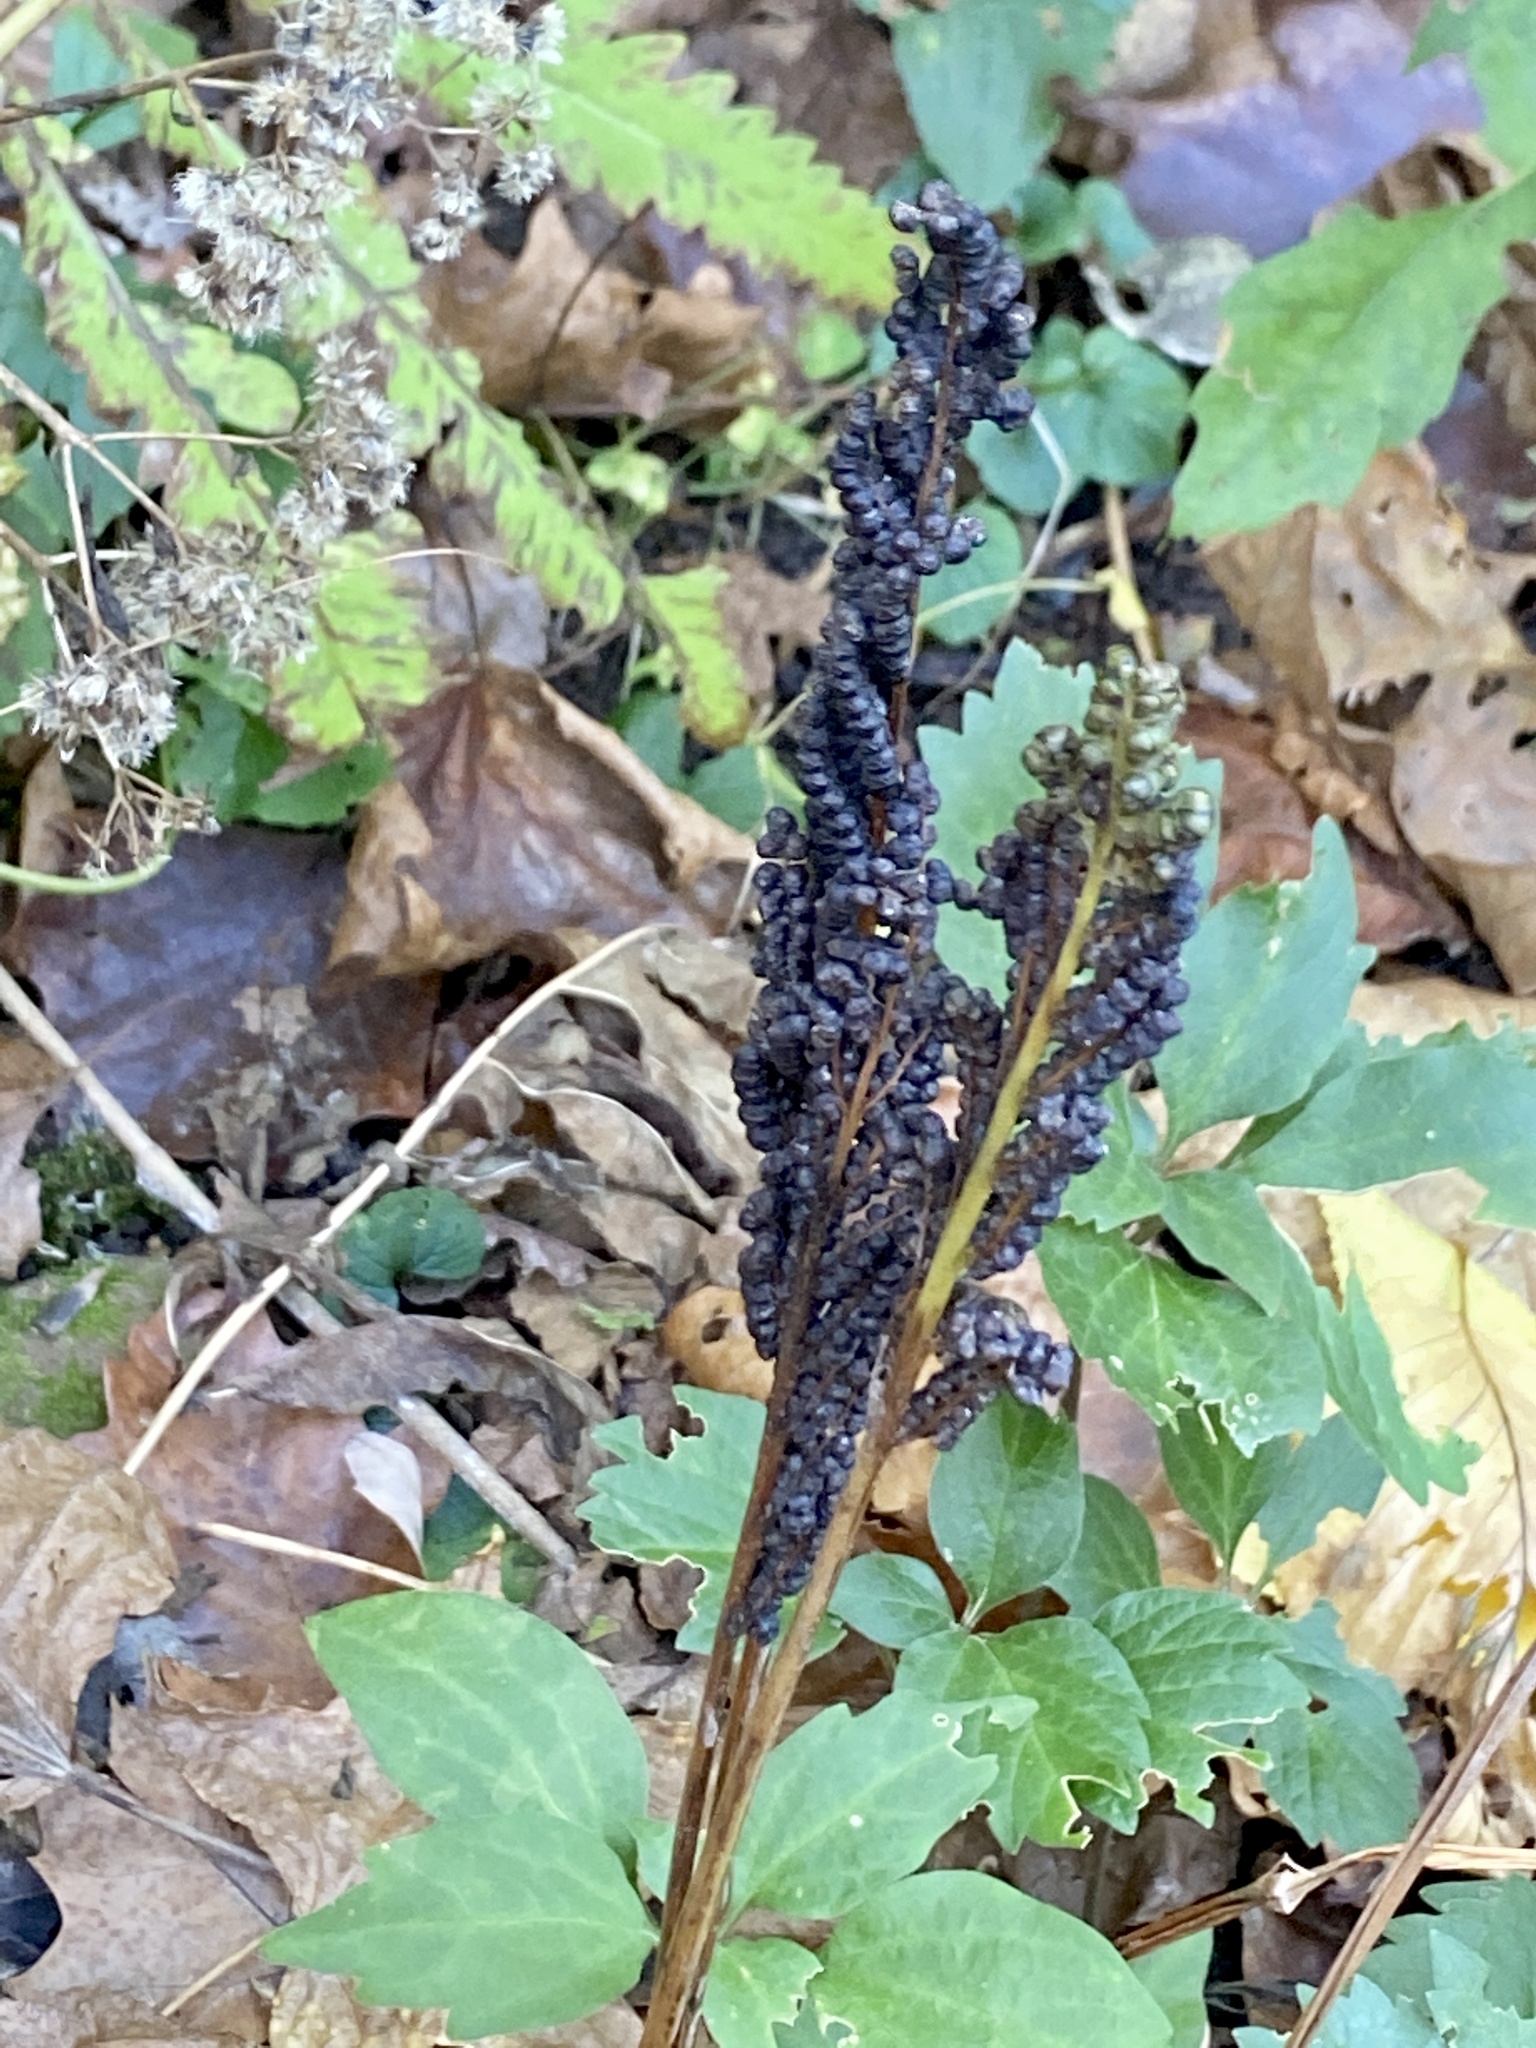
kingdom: Plantae
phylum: Tracheophyta
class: Polypodiopsida
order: Polypodiales
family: Onocleaceae
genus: Onoclea
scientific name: Onoclea sensibilis
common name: Sensitive fern
